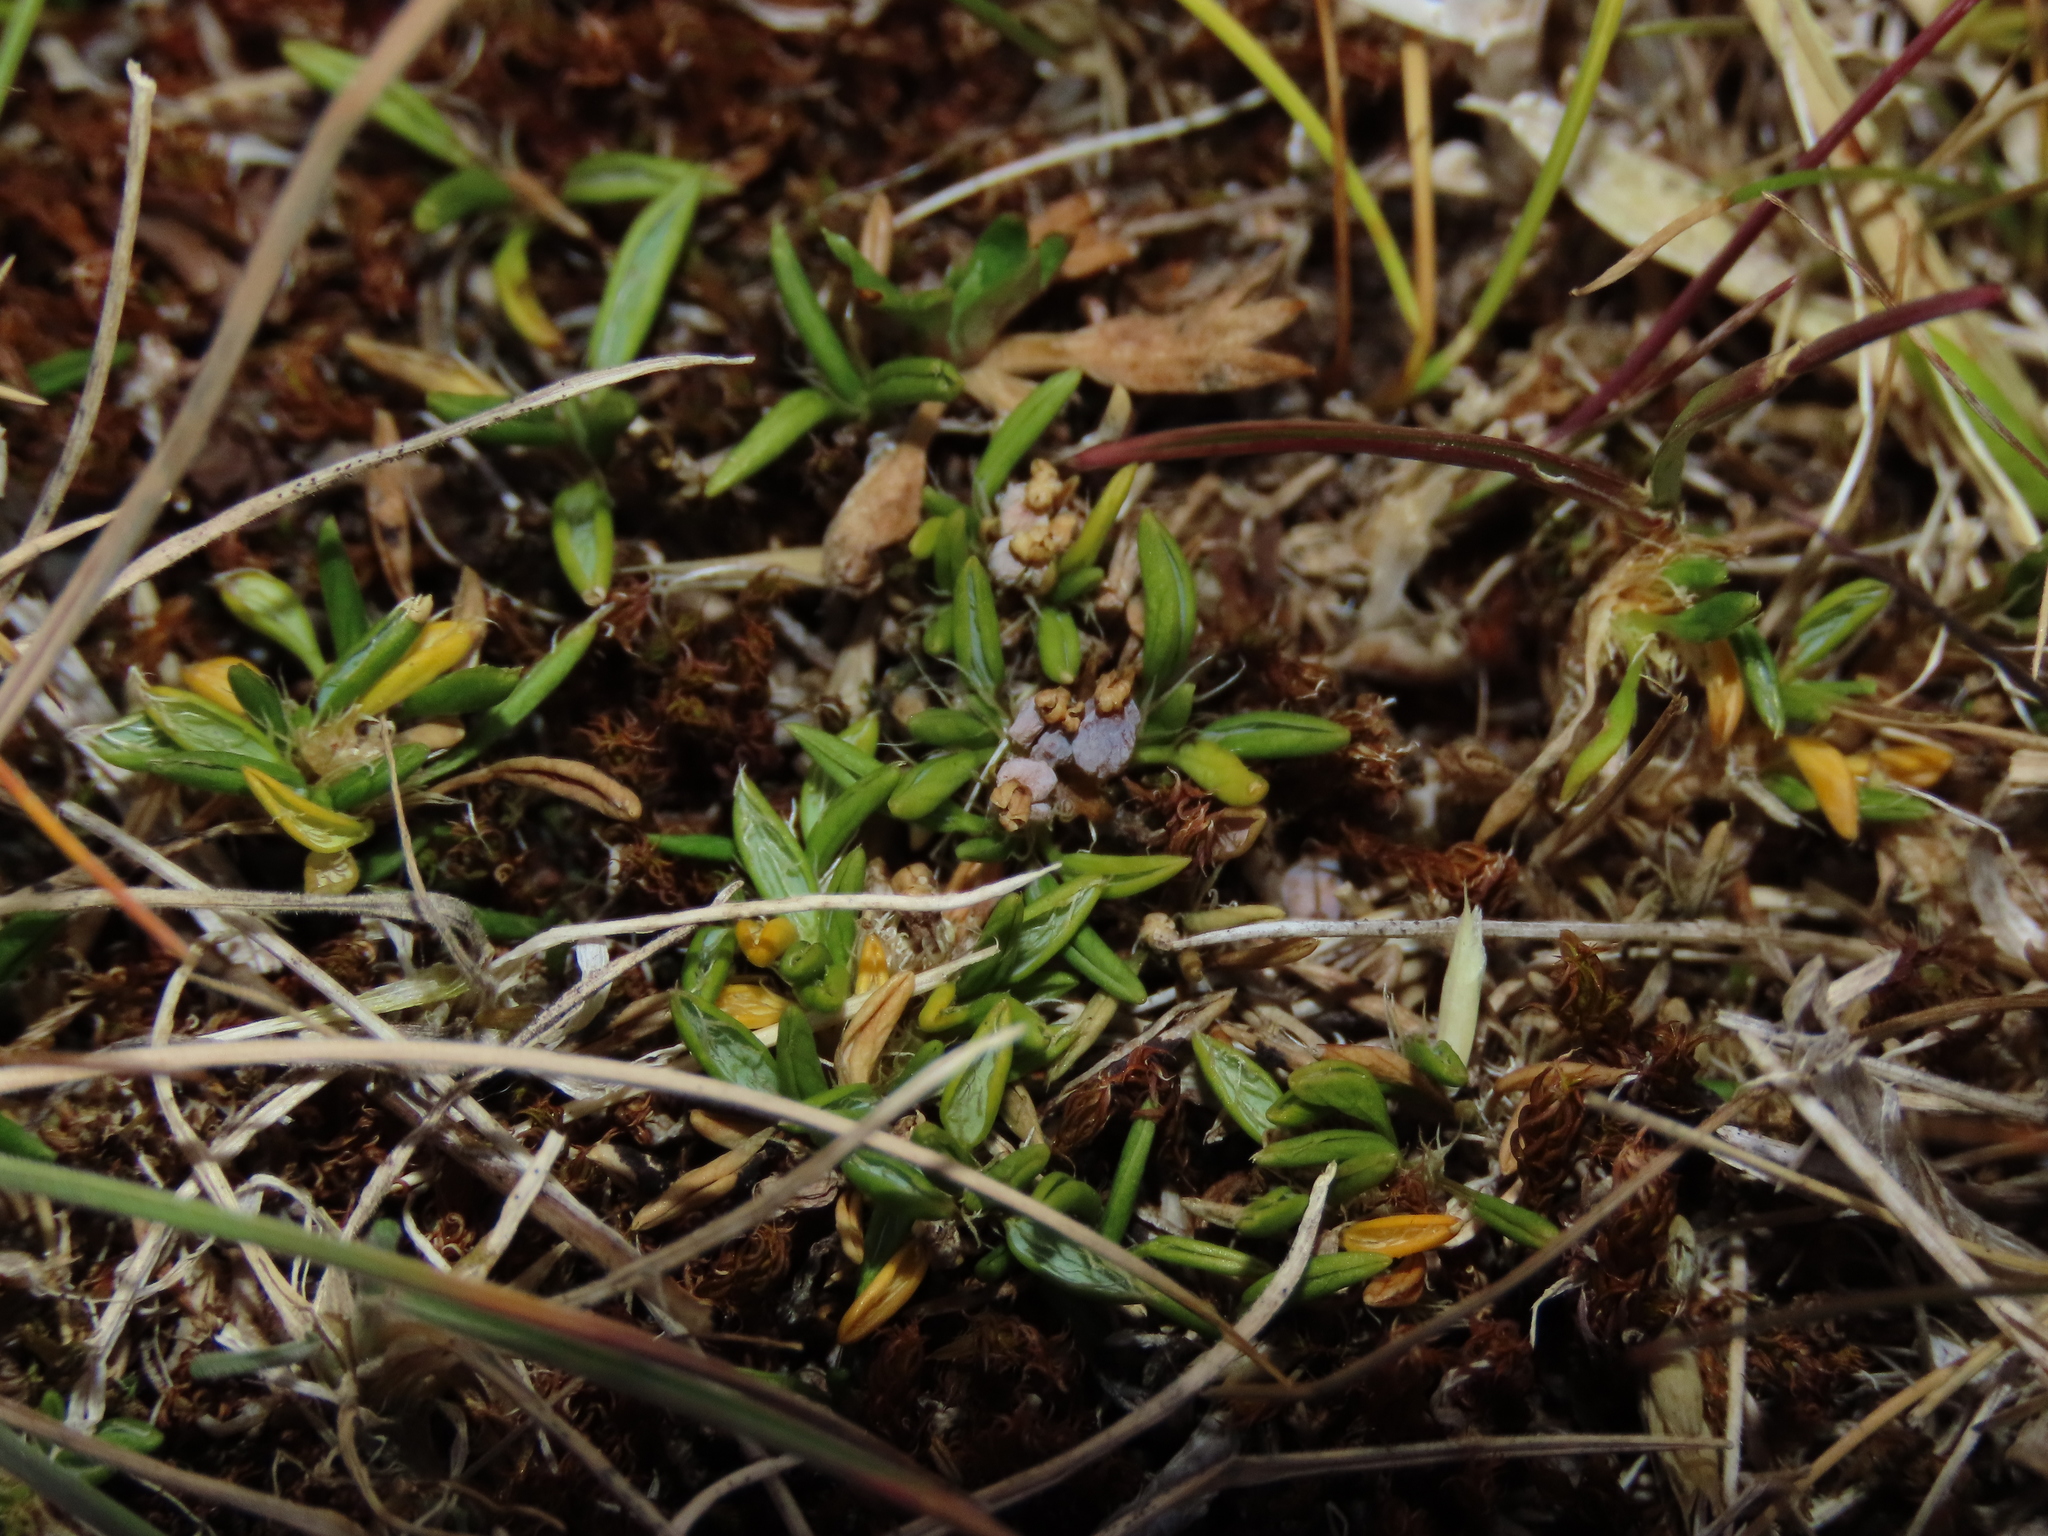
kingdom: Plantae
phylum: Tracheophyta
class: Magnoliopsida
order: Apiales
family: Apiaceae
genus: Azorella
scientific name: Azorella filamentosa
